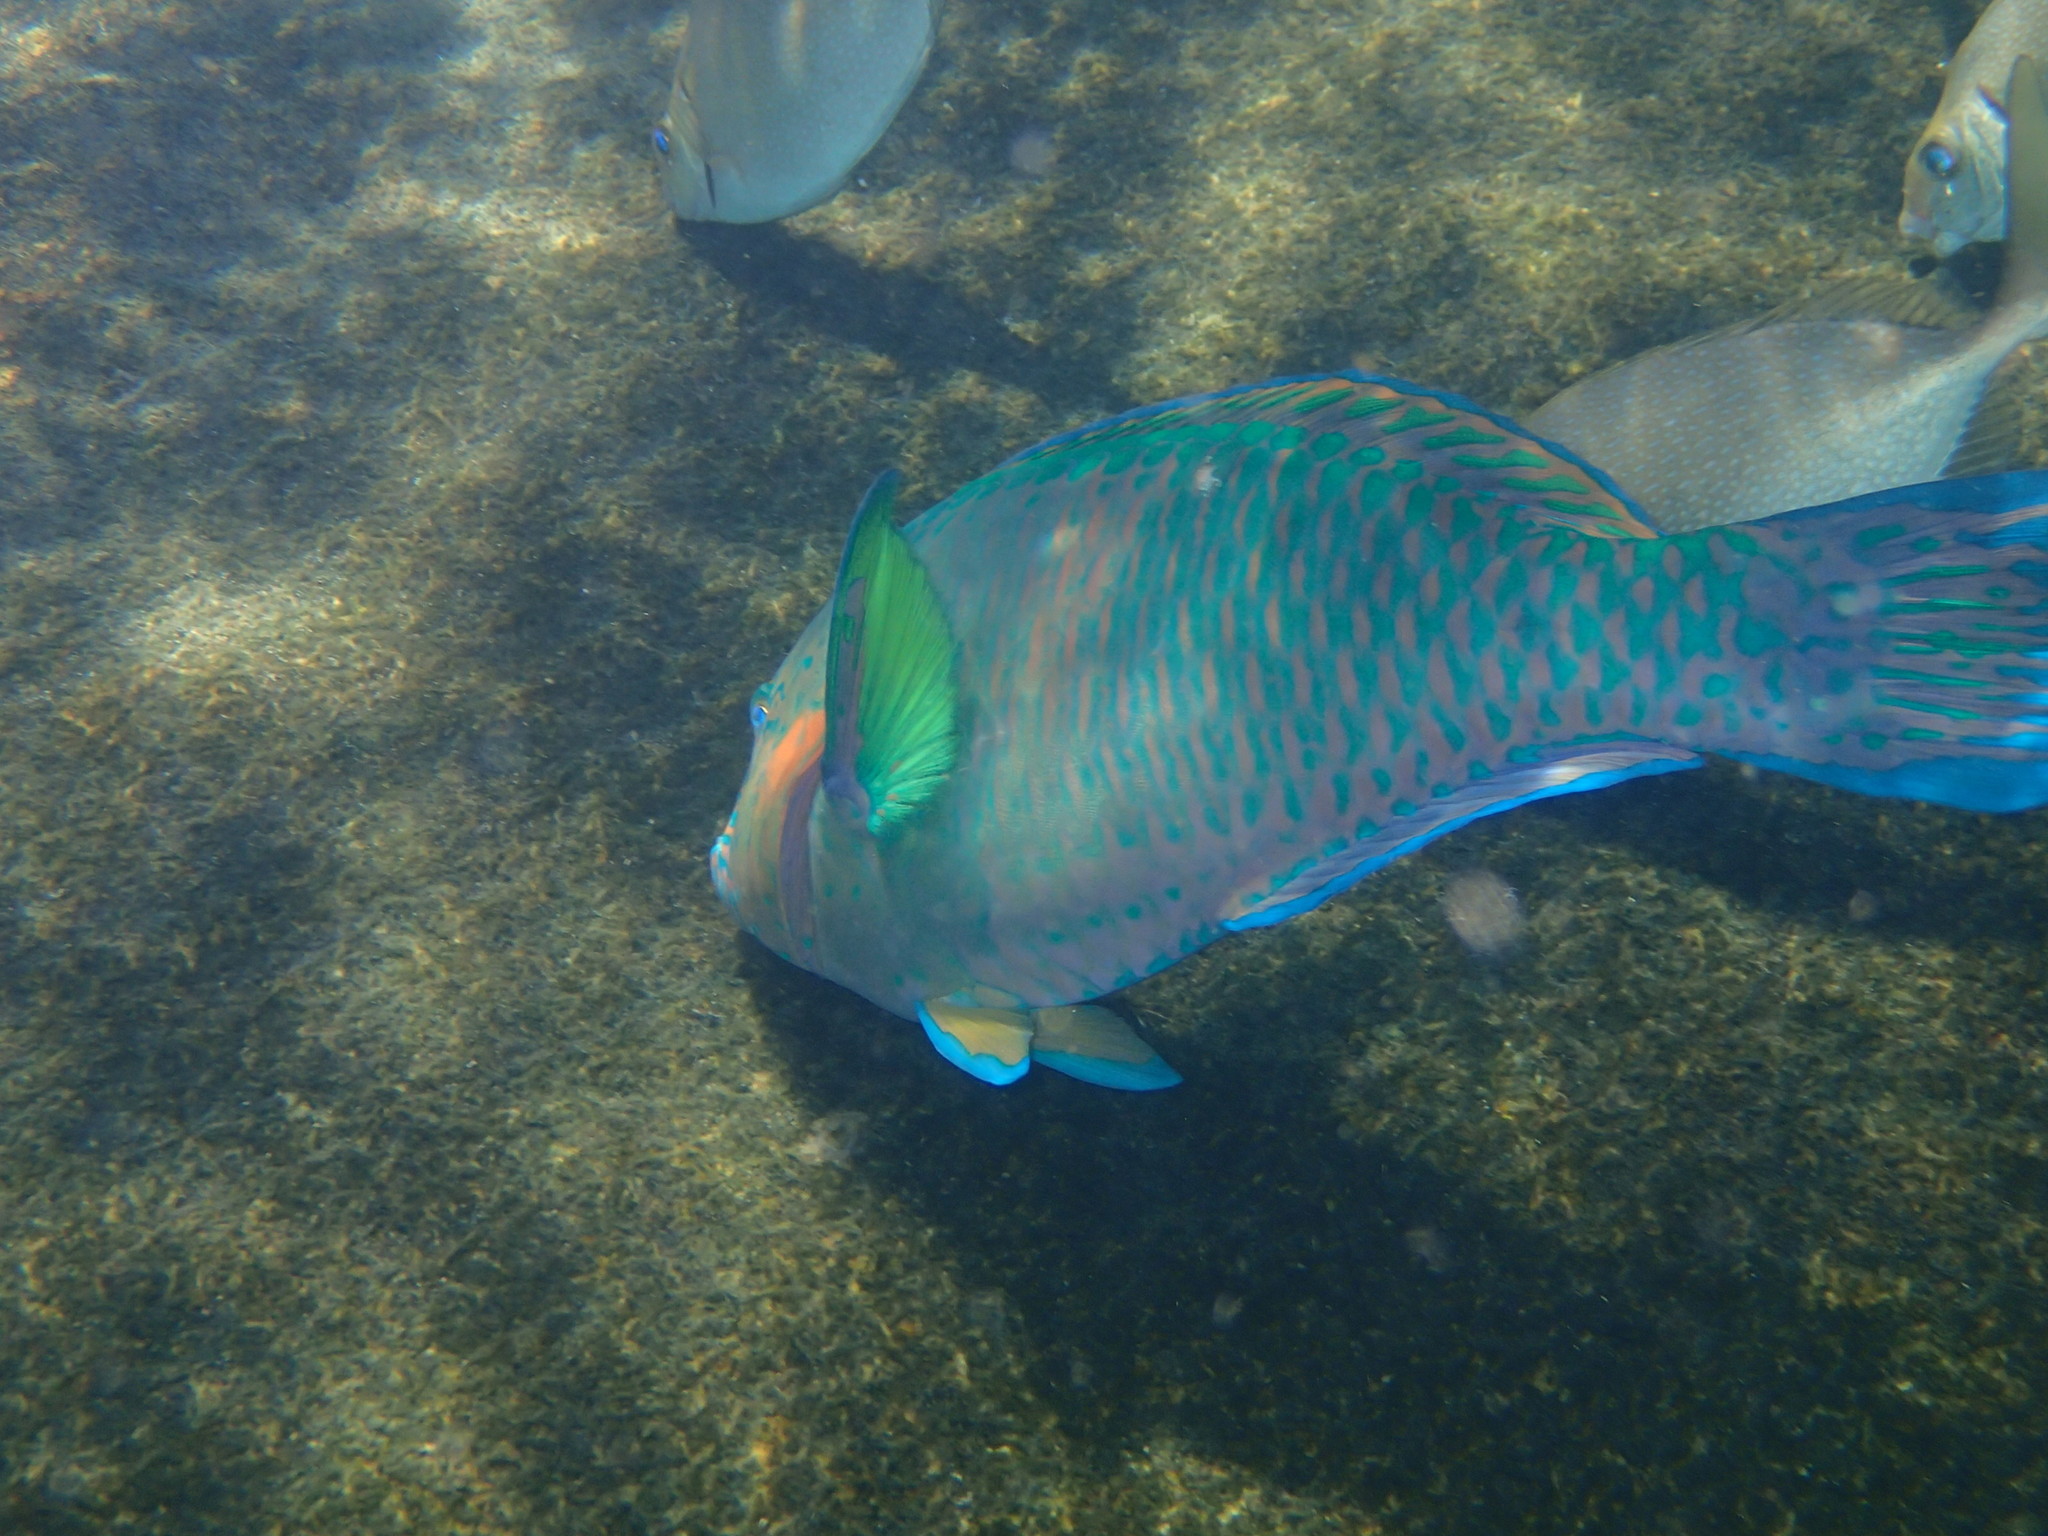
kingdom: Animalia
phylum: Chordata
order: Perciformes
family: Scaridae
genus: Scarus
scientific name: Scarus rivulatus
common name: Surf parrotfish
